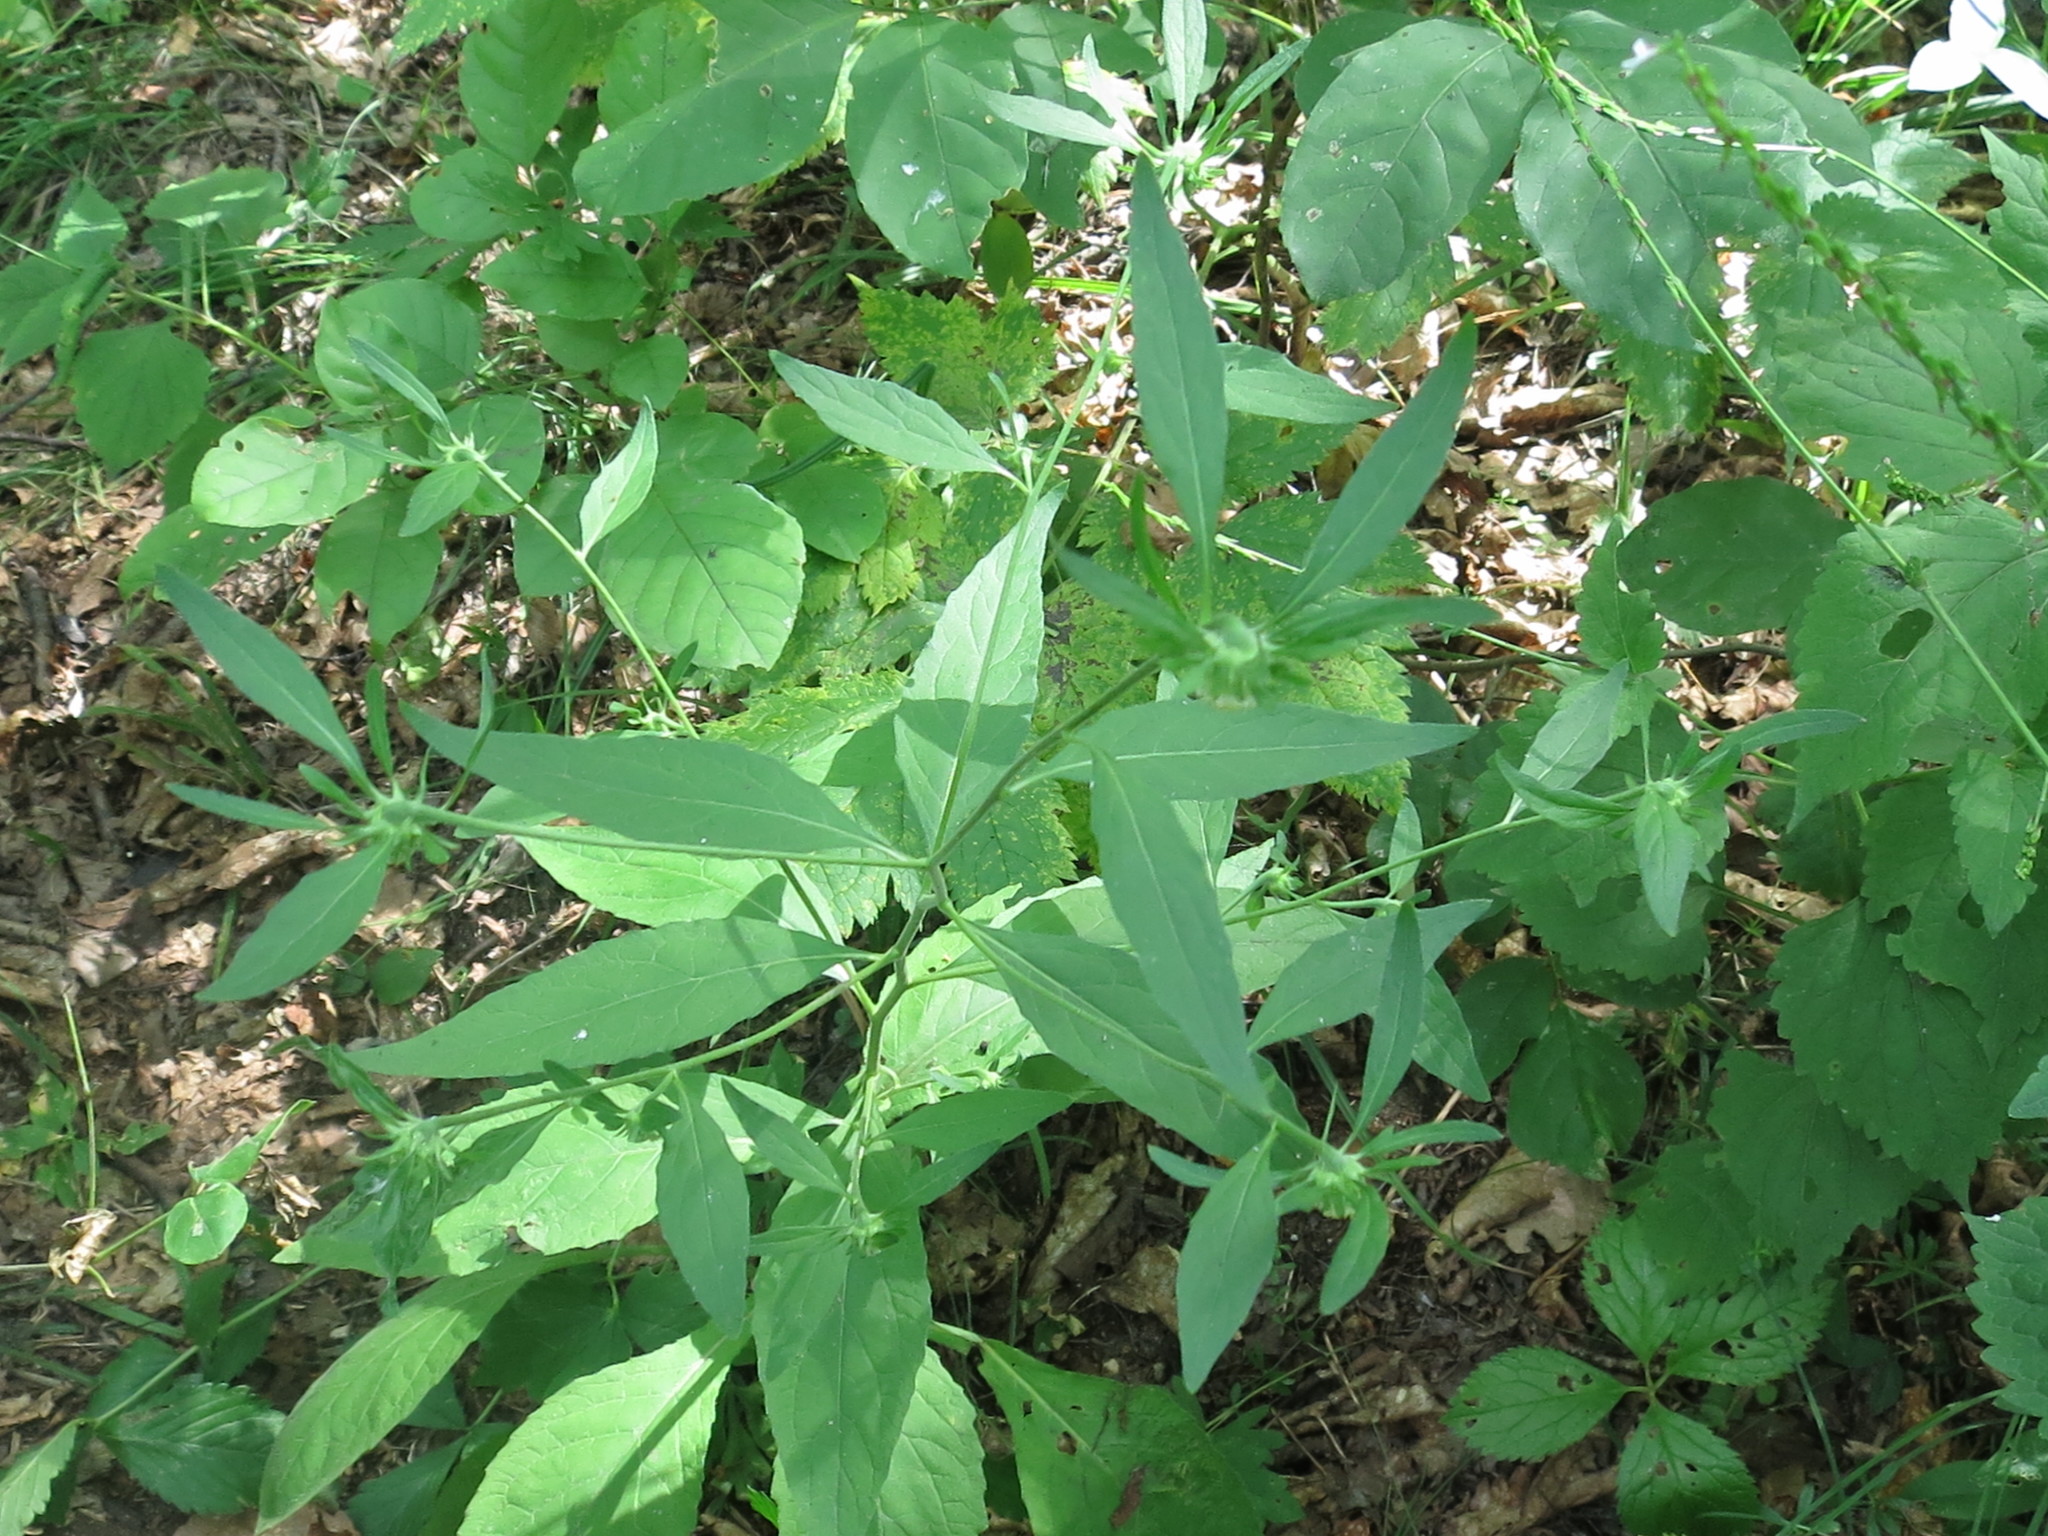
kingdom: Plantae
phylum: Tracheophyta
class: Magnoliopsida
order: Asterales
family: Asteraceae
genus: Carpesium
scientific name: Carpesium cernuum
